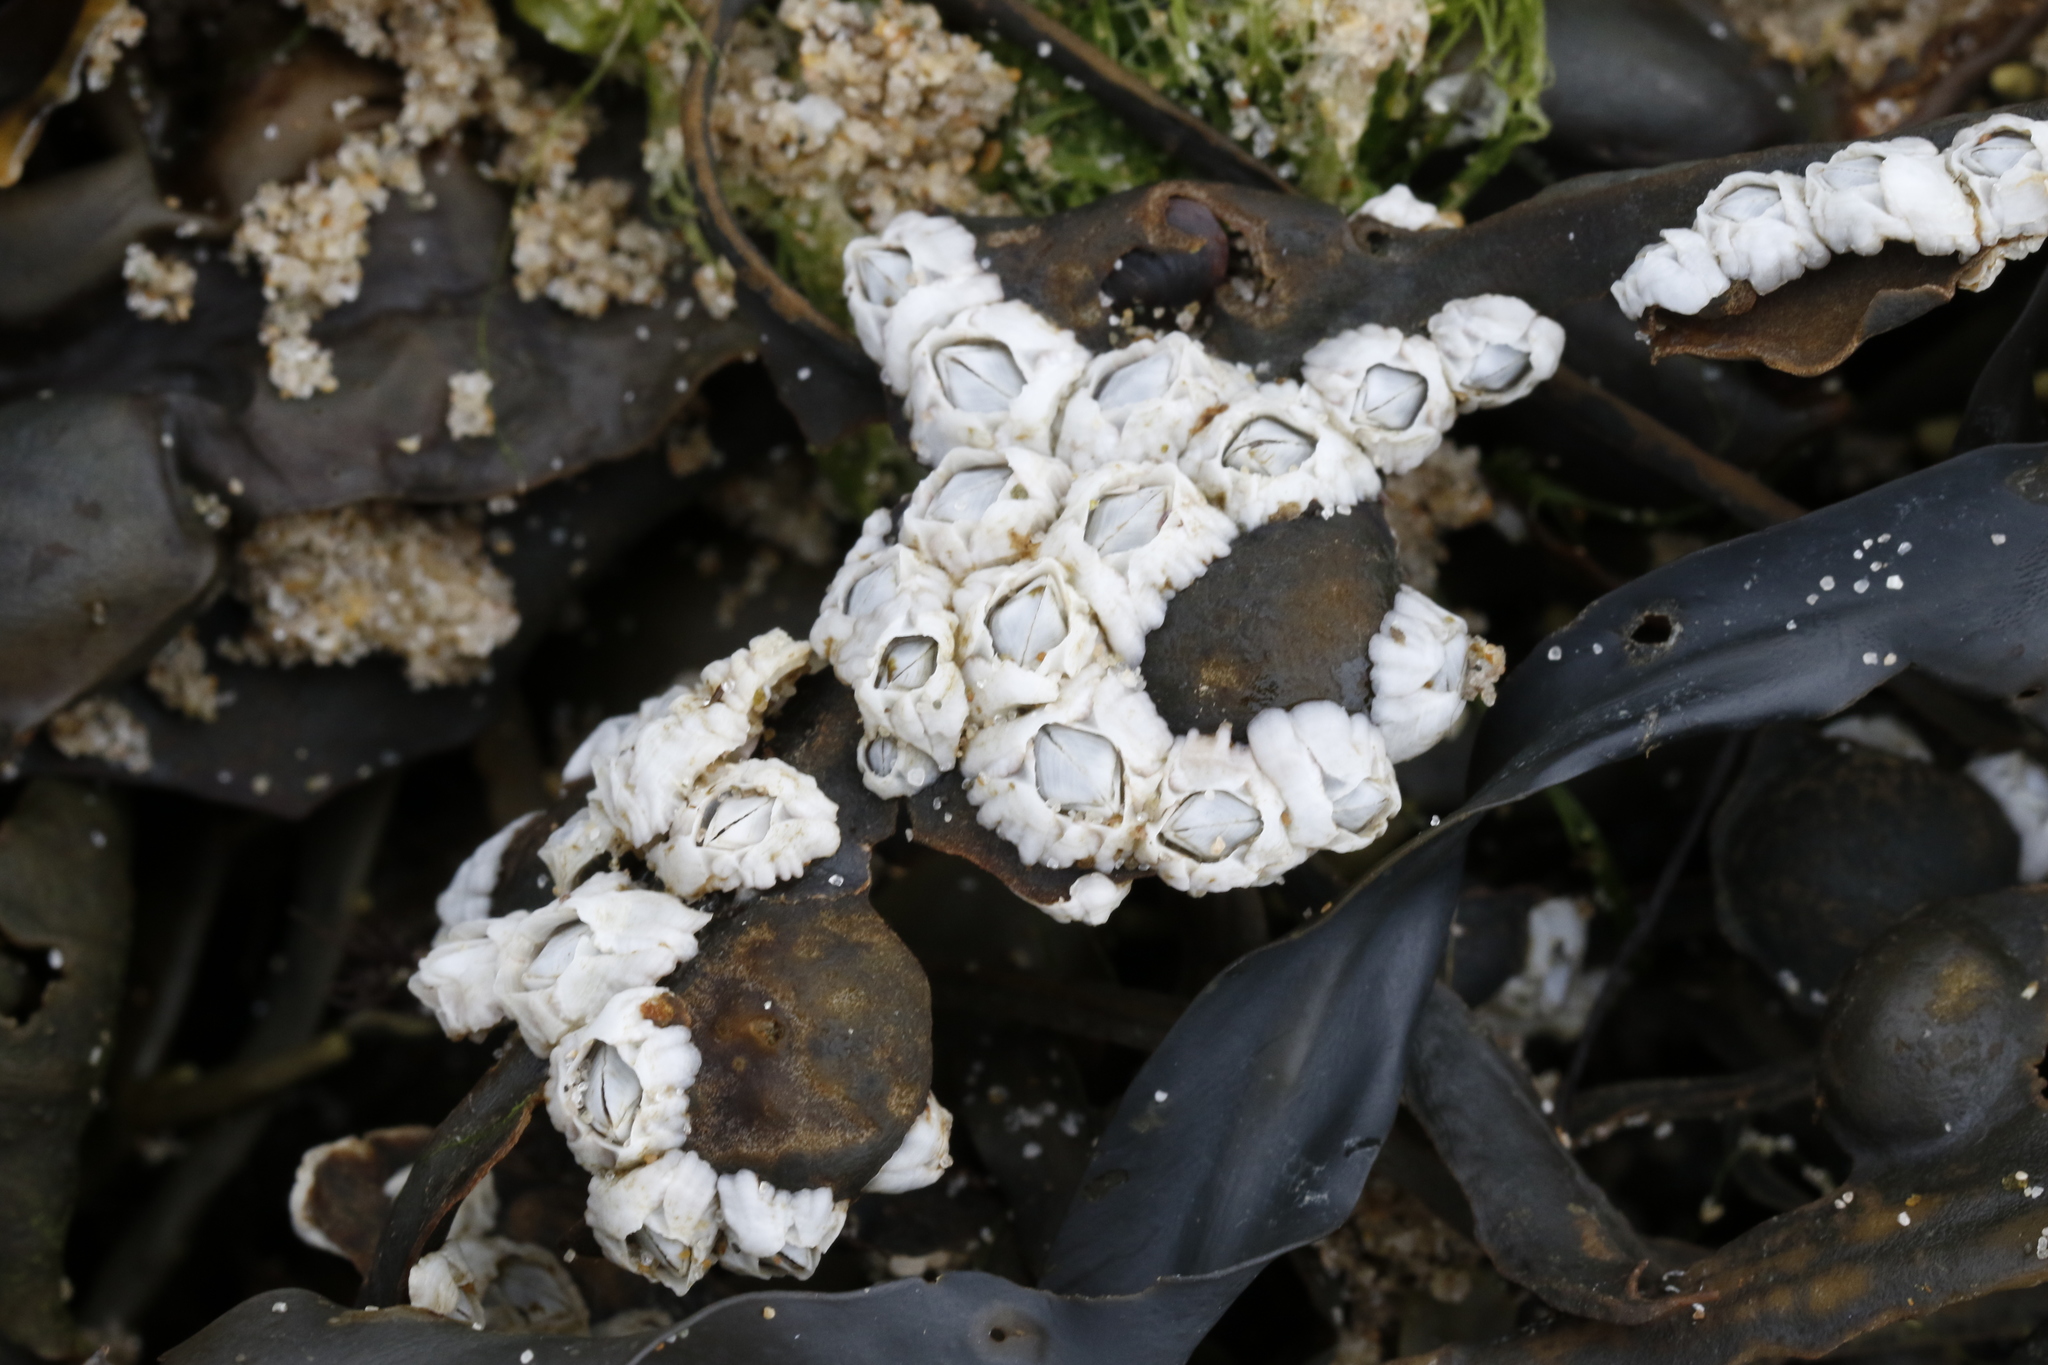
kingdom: Animalia
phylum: Arthropoda
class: Maxillopoda
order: Sessilia
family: Archaeobalanidae
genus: Semibalanus
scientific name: Semibalanus balanoides
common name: Acorn barnacle
